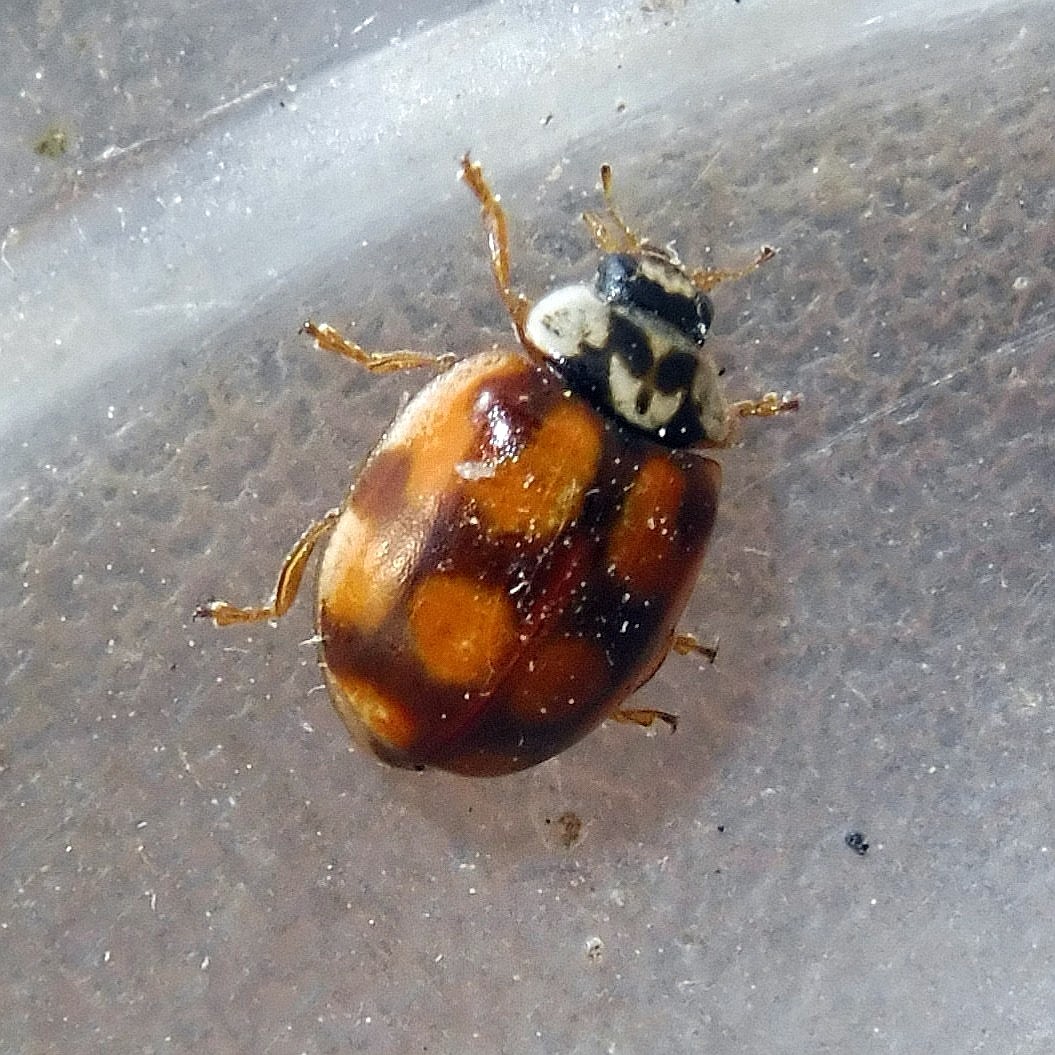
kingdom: Animalia
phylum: Arthropoda
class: Insecta
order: Coleoptera
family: Coccinellidae
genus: Adalia
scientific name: Adalia decempunctata
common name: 10-spot ladybird
